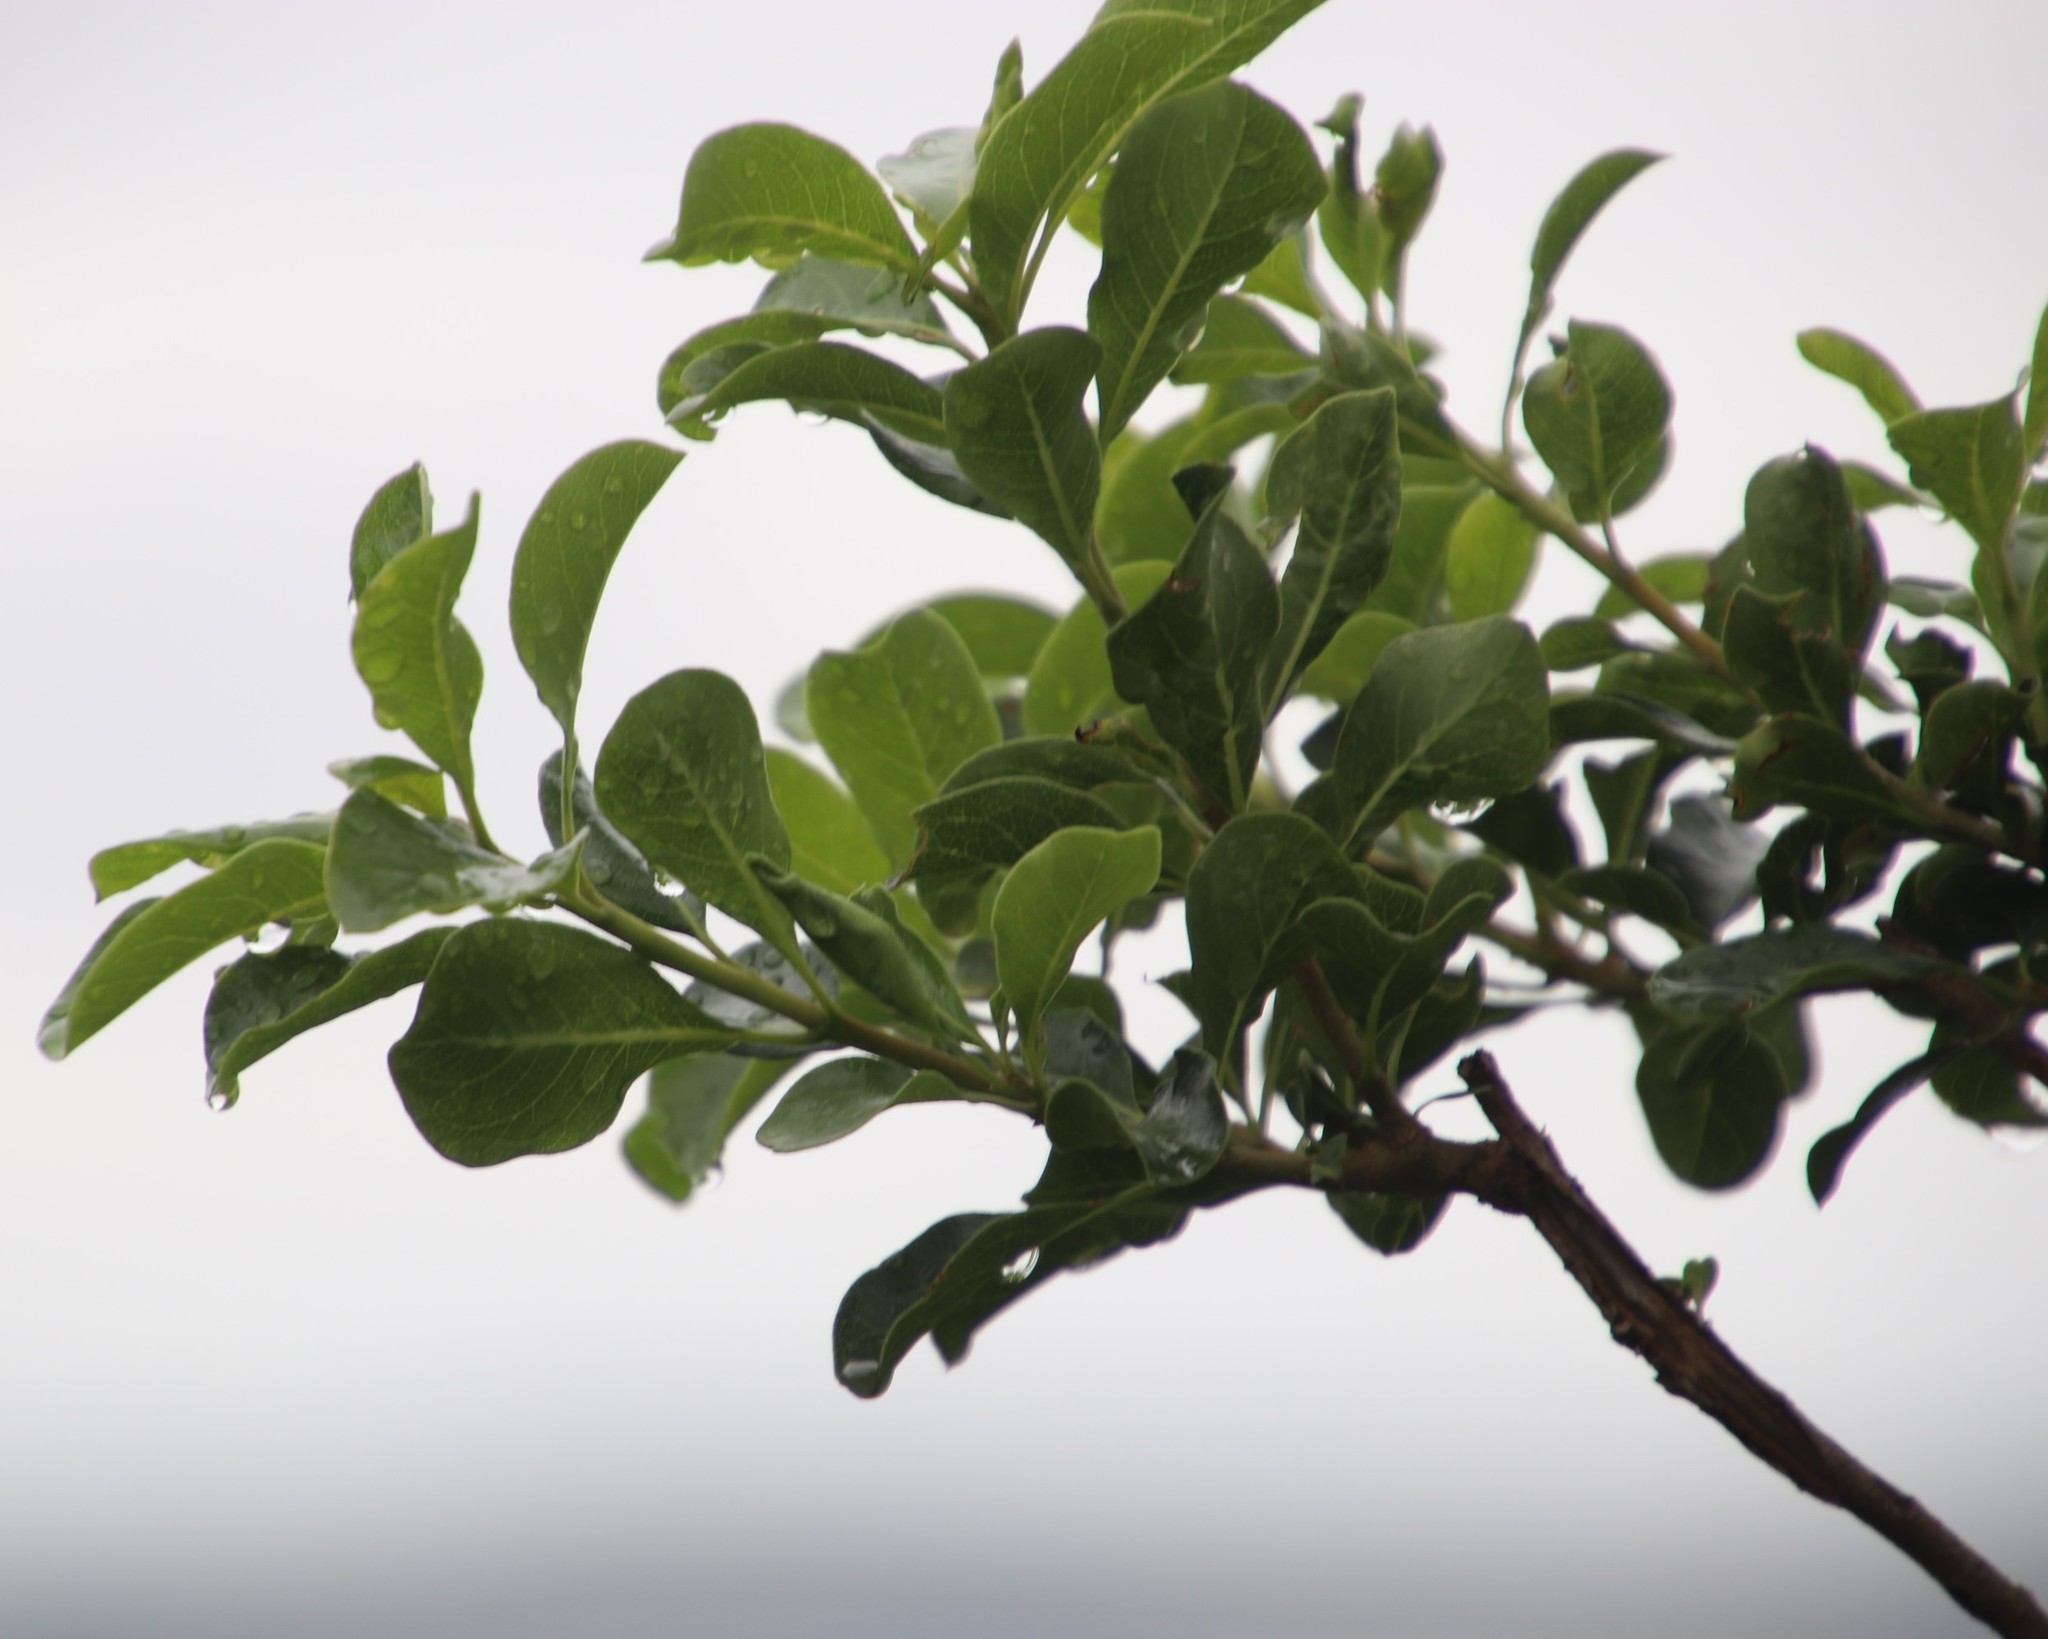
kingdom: Plantae
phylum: Tracheophyta
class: Magnoliopsida
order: Apiales
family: Pittosporaceae
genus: Pittosporum
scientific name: Pittosporum viridiflorum
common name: Cape cheesewood
